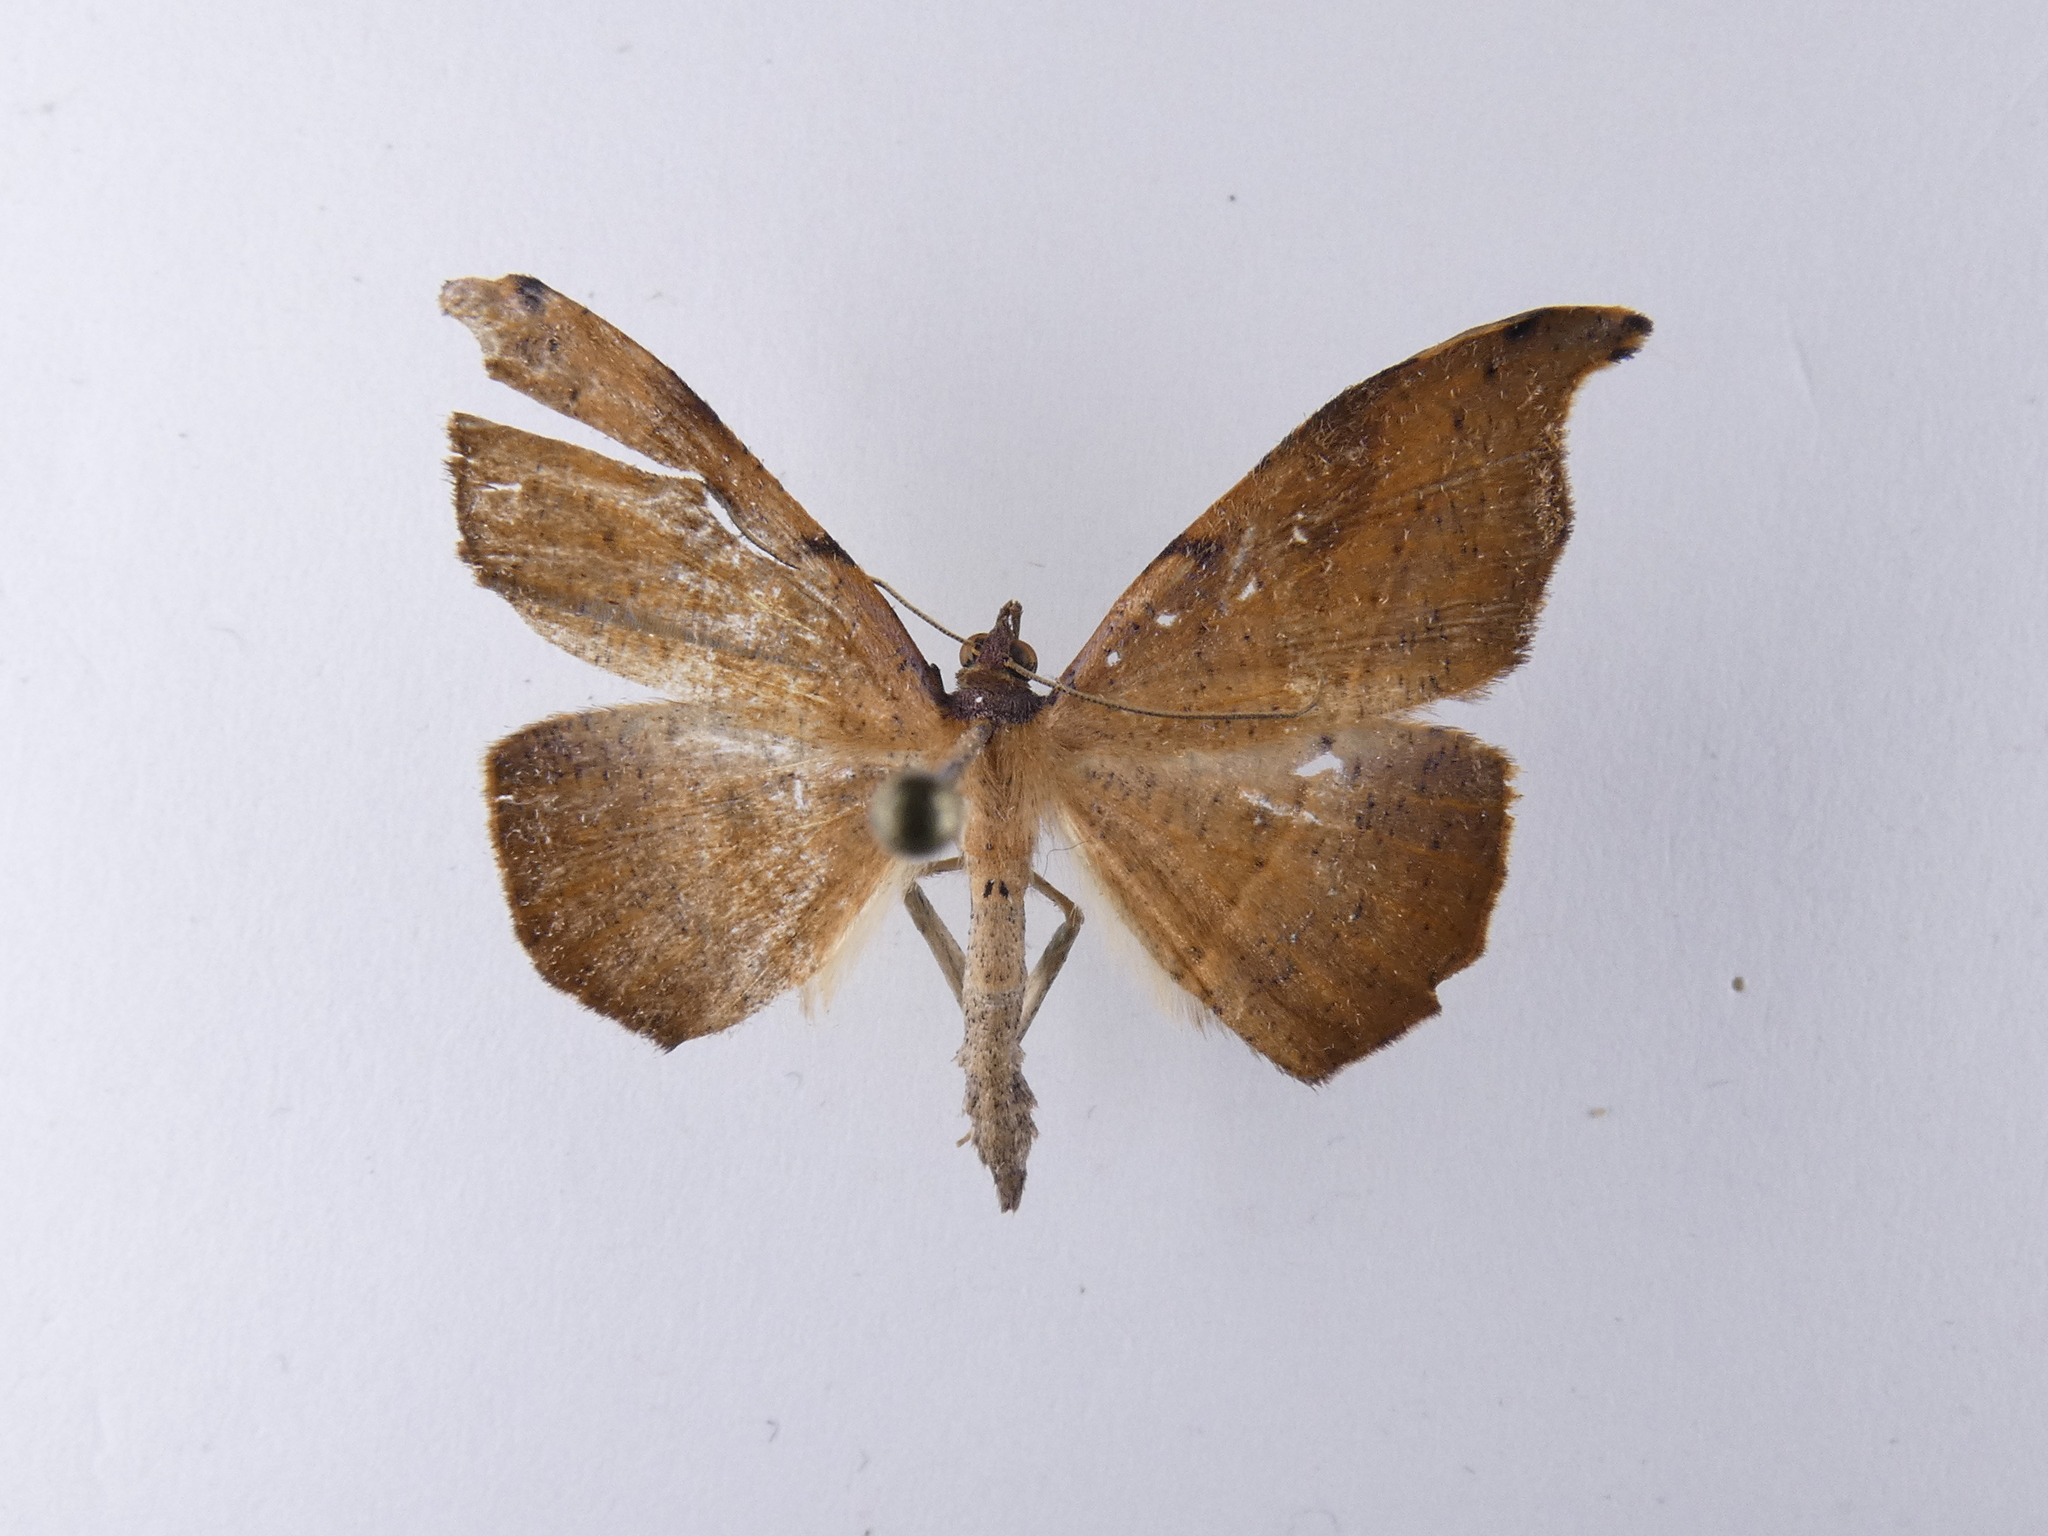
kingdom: Animalia
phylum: Arthropoda
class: Insecta
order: Lepidoptera
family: Geometridae
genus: Sarisa
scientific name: Sarisa muriferata
